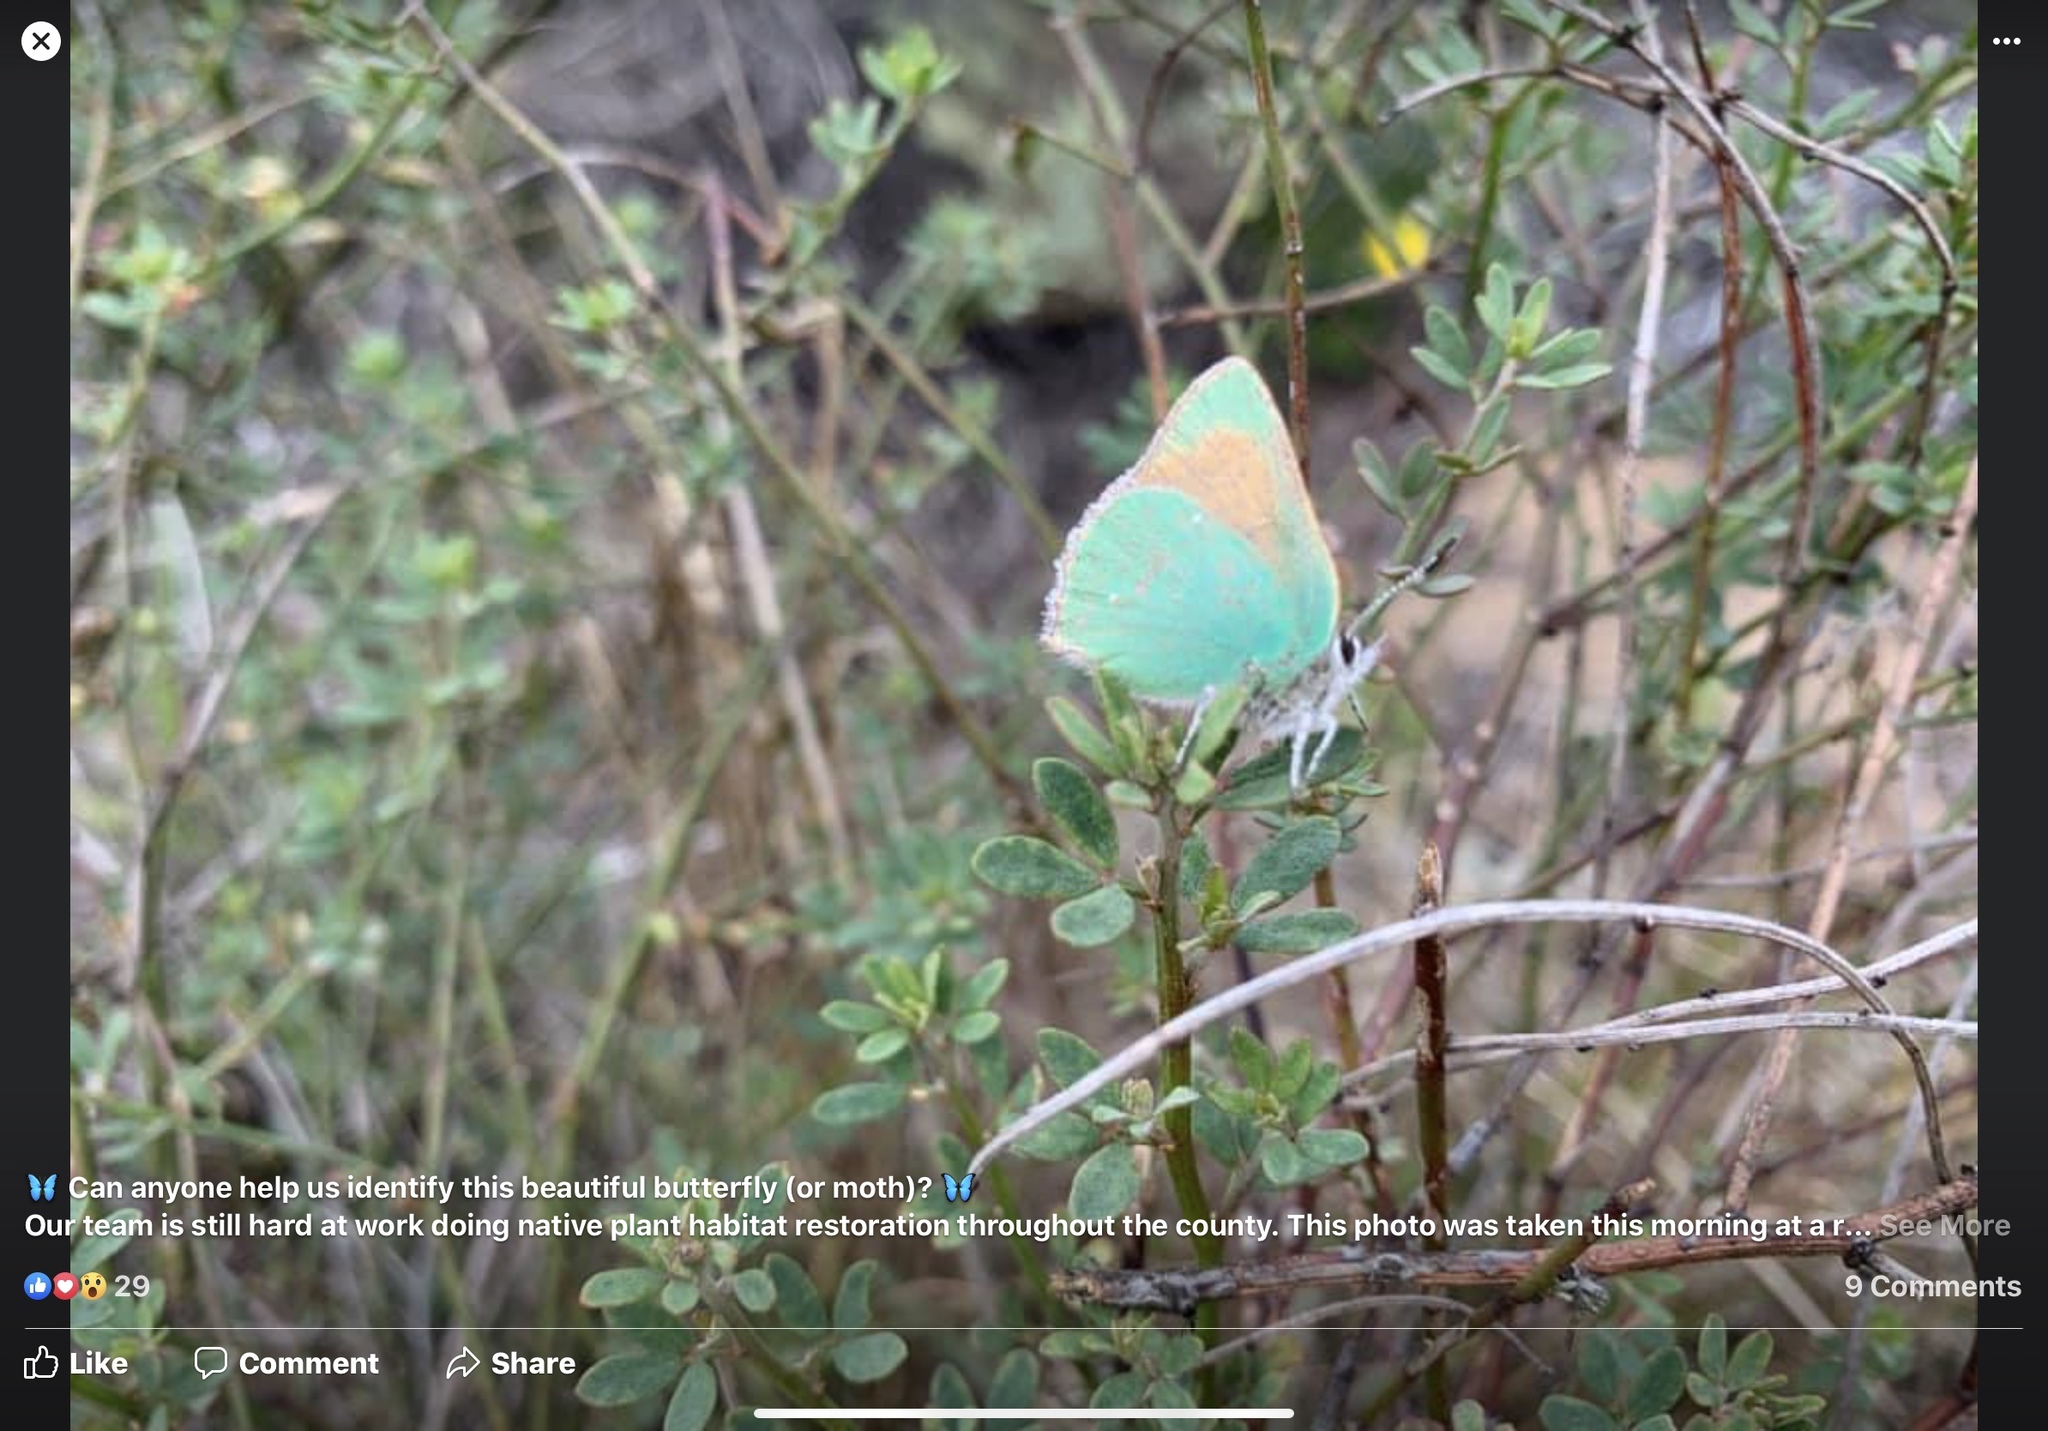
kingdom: Animalia
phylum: Arthropoda
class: Insecta
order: Lepidoptera
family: Lycaenidae
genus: Callophrys
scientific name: Callophrys dumetorum
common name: Bramble hairstreak
